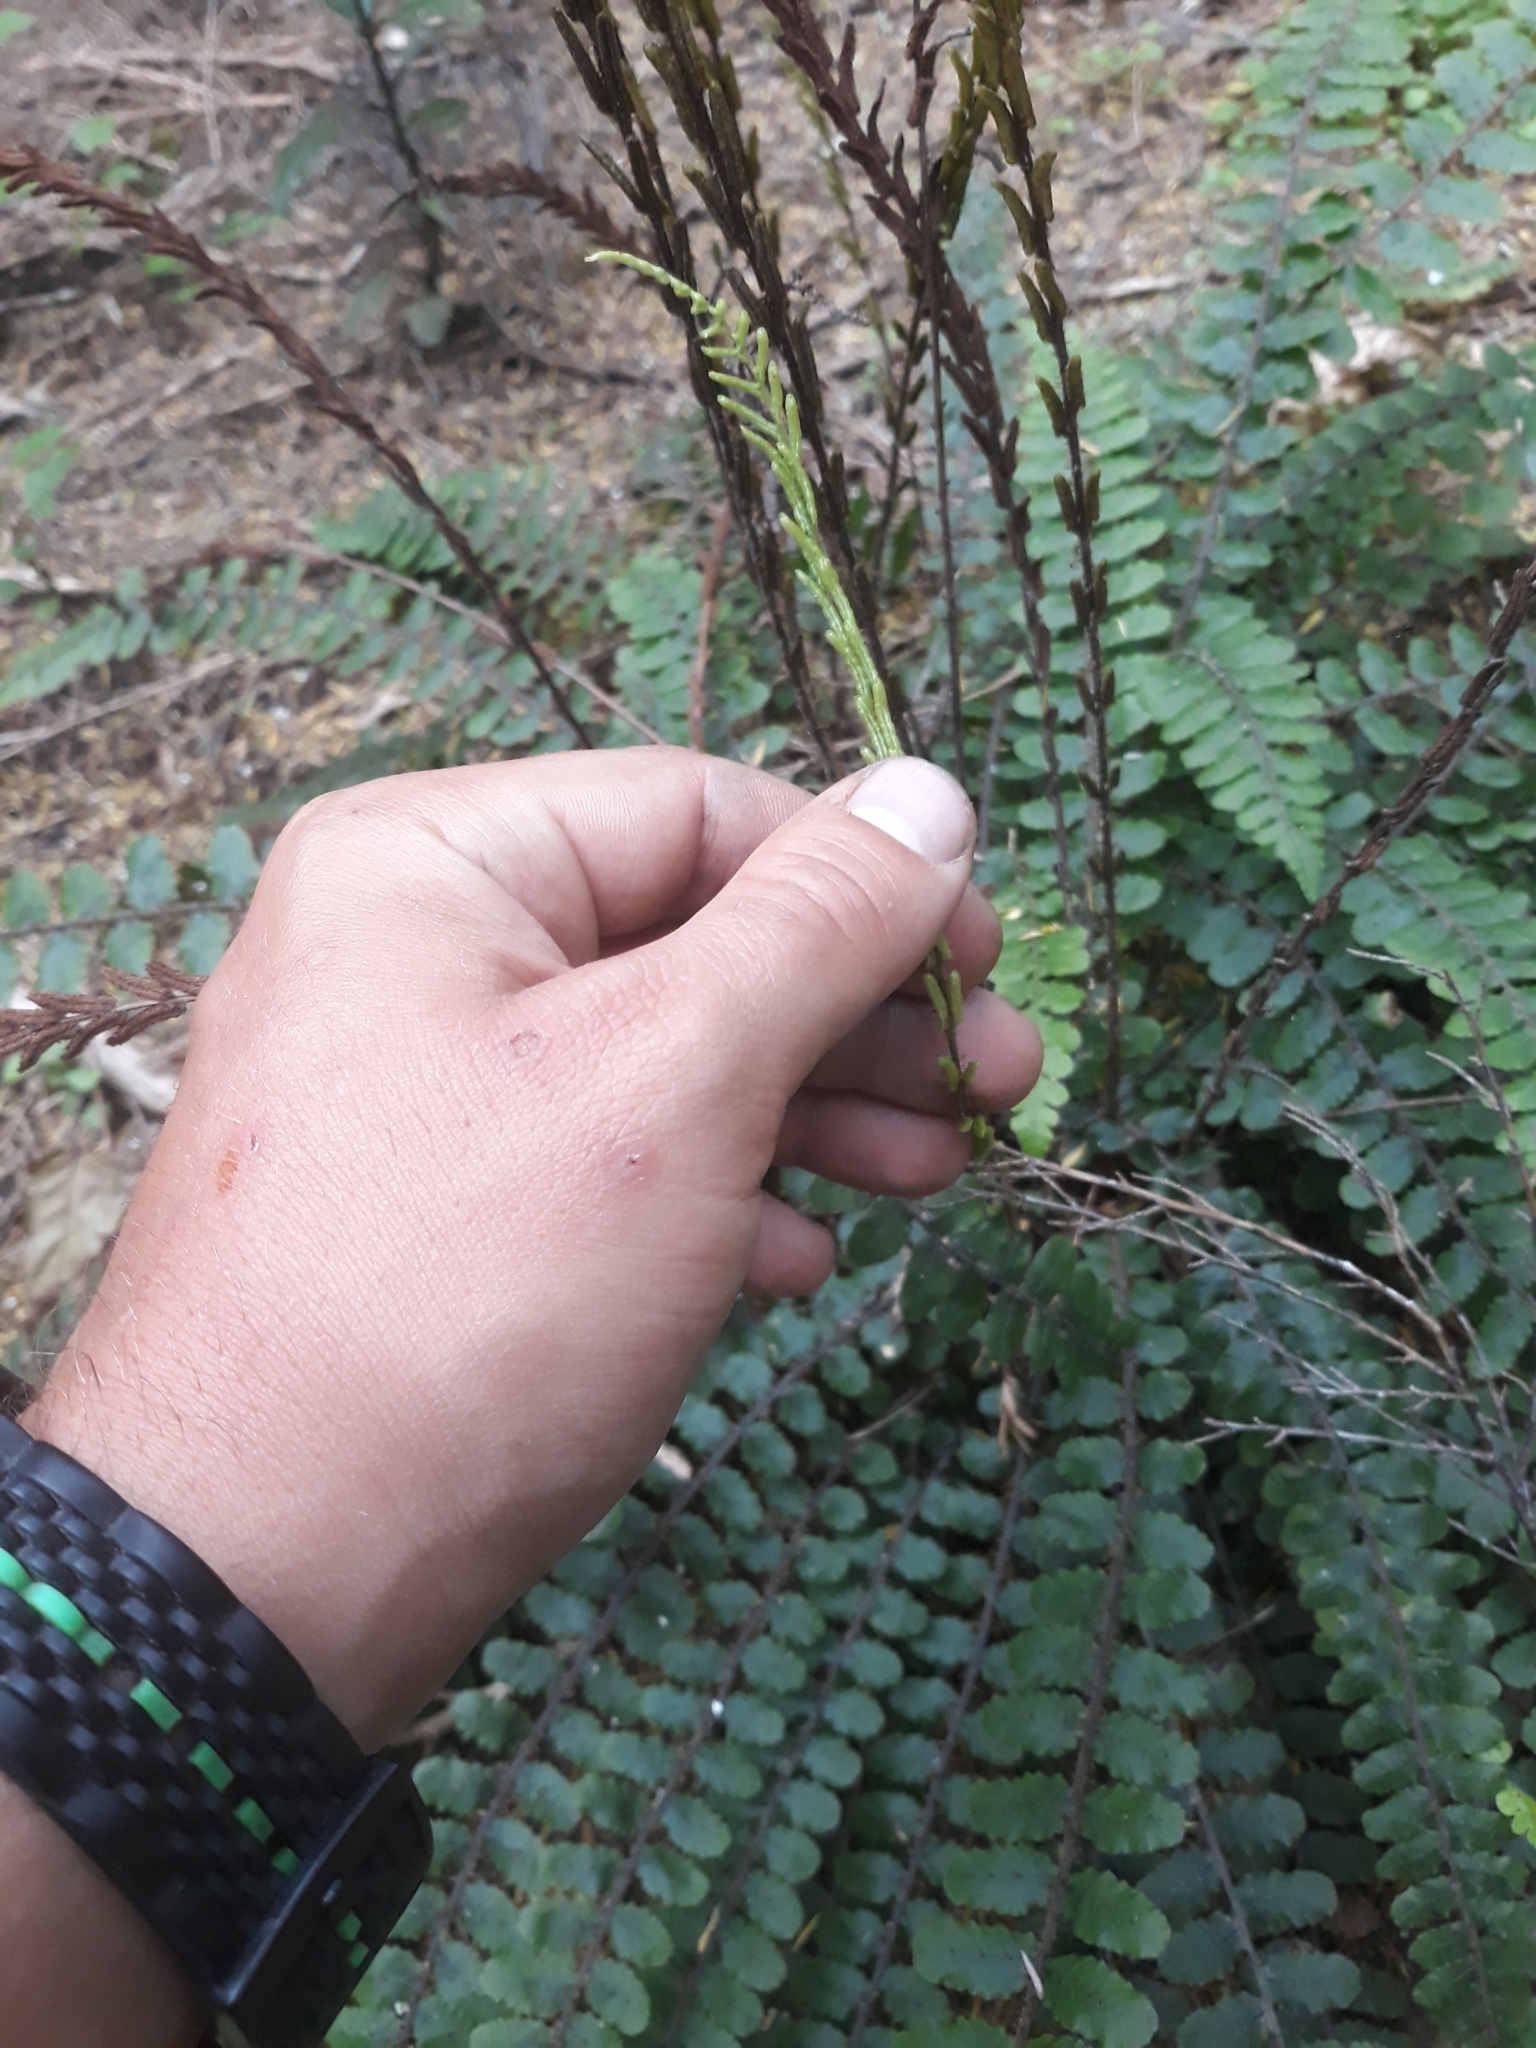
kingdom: Plantae
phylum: Tracheophyta
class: Polypodiopsida
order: Polypodiales
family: Blechnaceae
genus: Cranfillia
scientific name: Cranfillia fluviatilis
